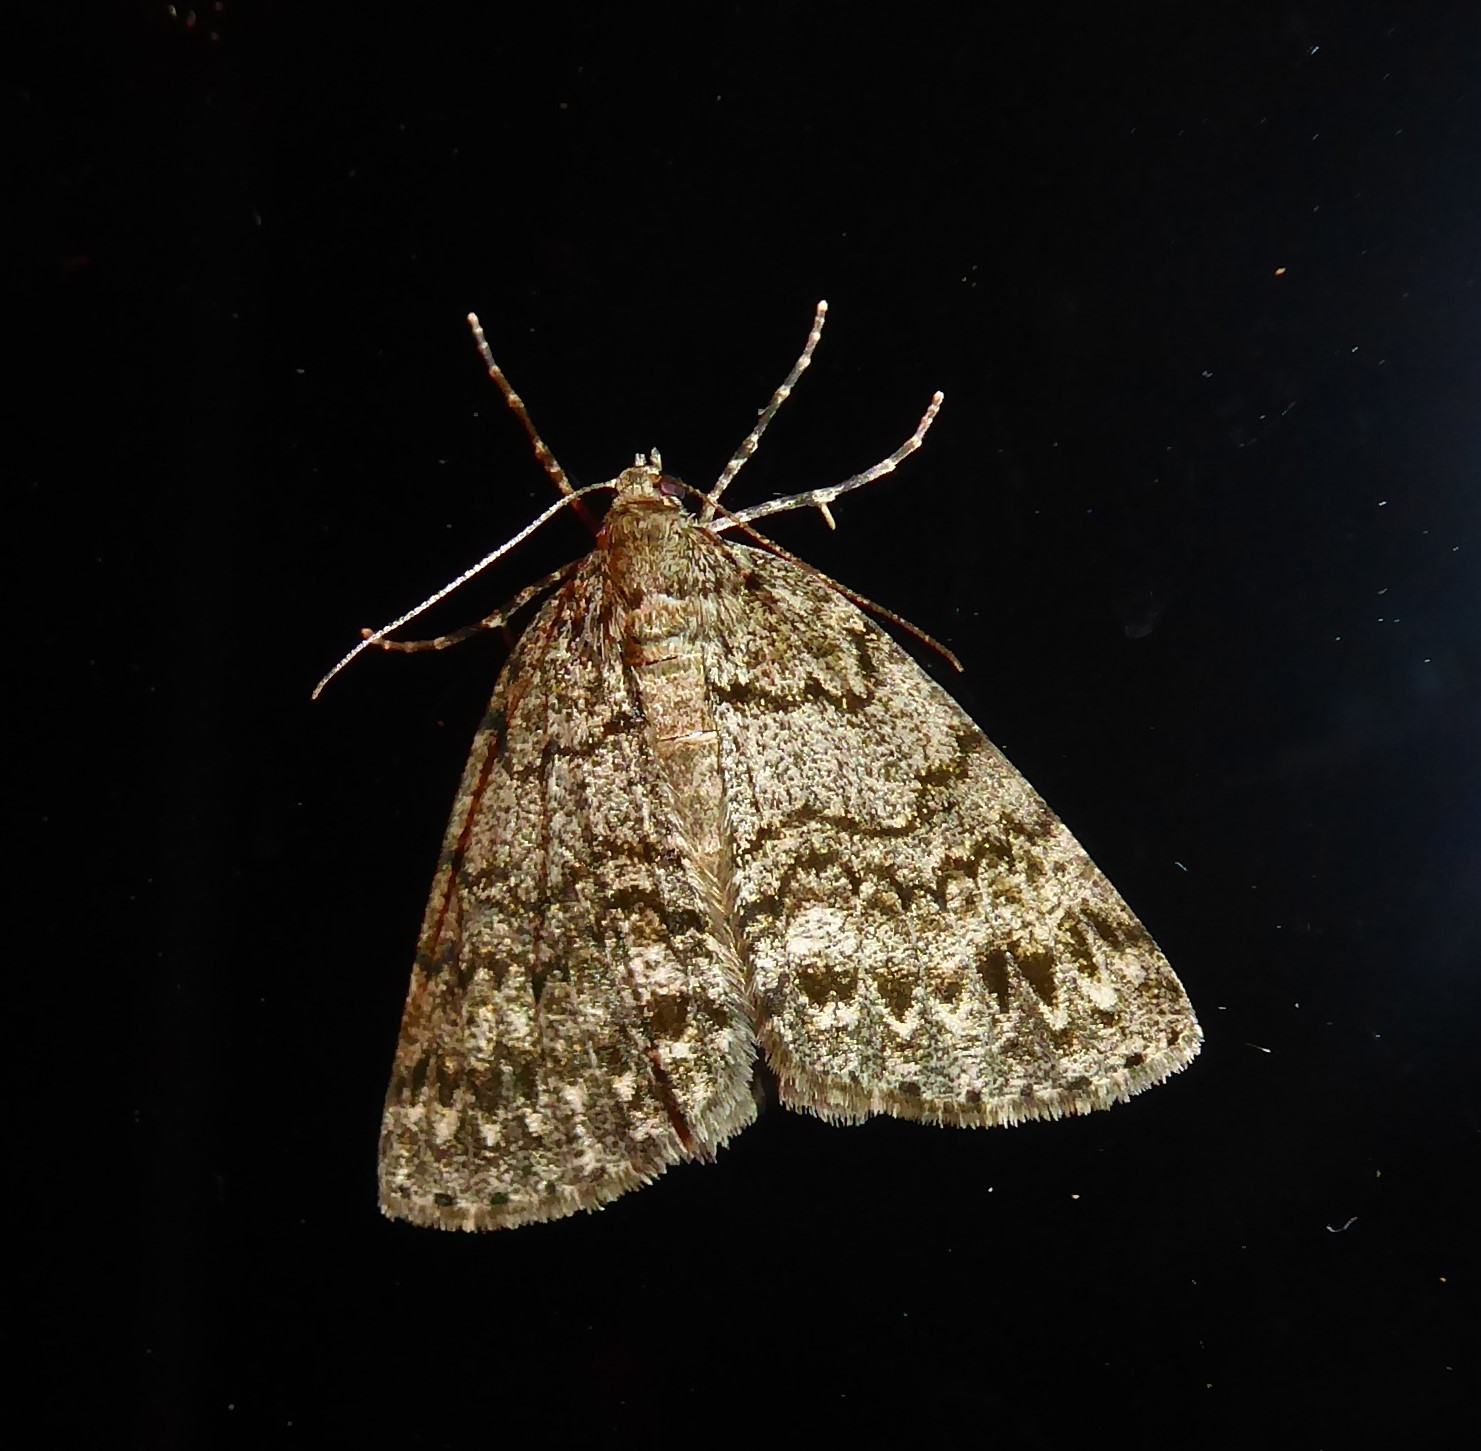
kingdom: Animalia
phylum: Arthropoda
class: Insecta
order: Lepidoptera
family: Geometridae
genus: Pseudocoremia
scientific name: Pseudocoremia indistincta
